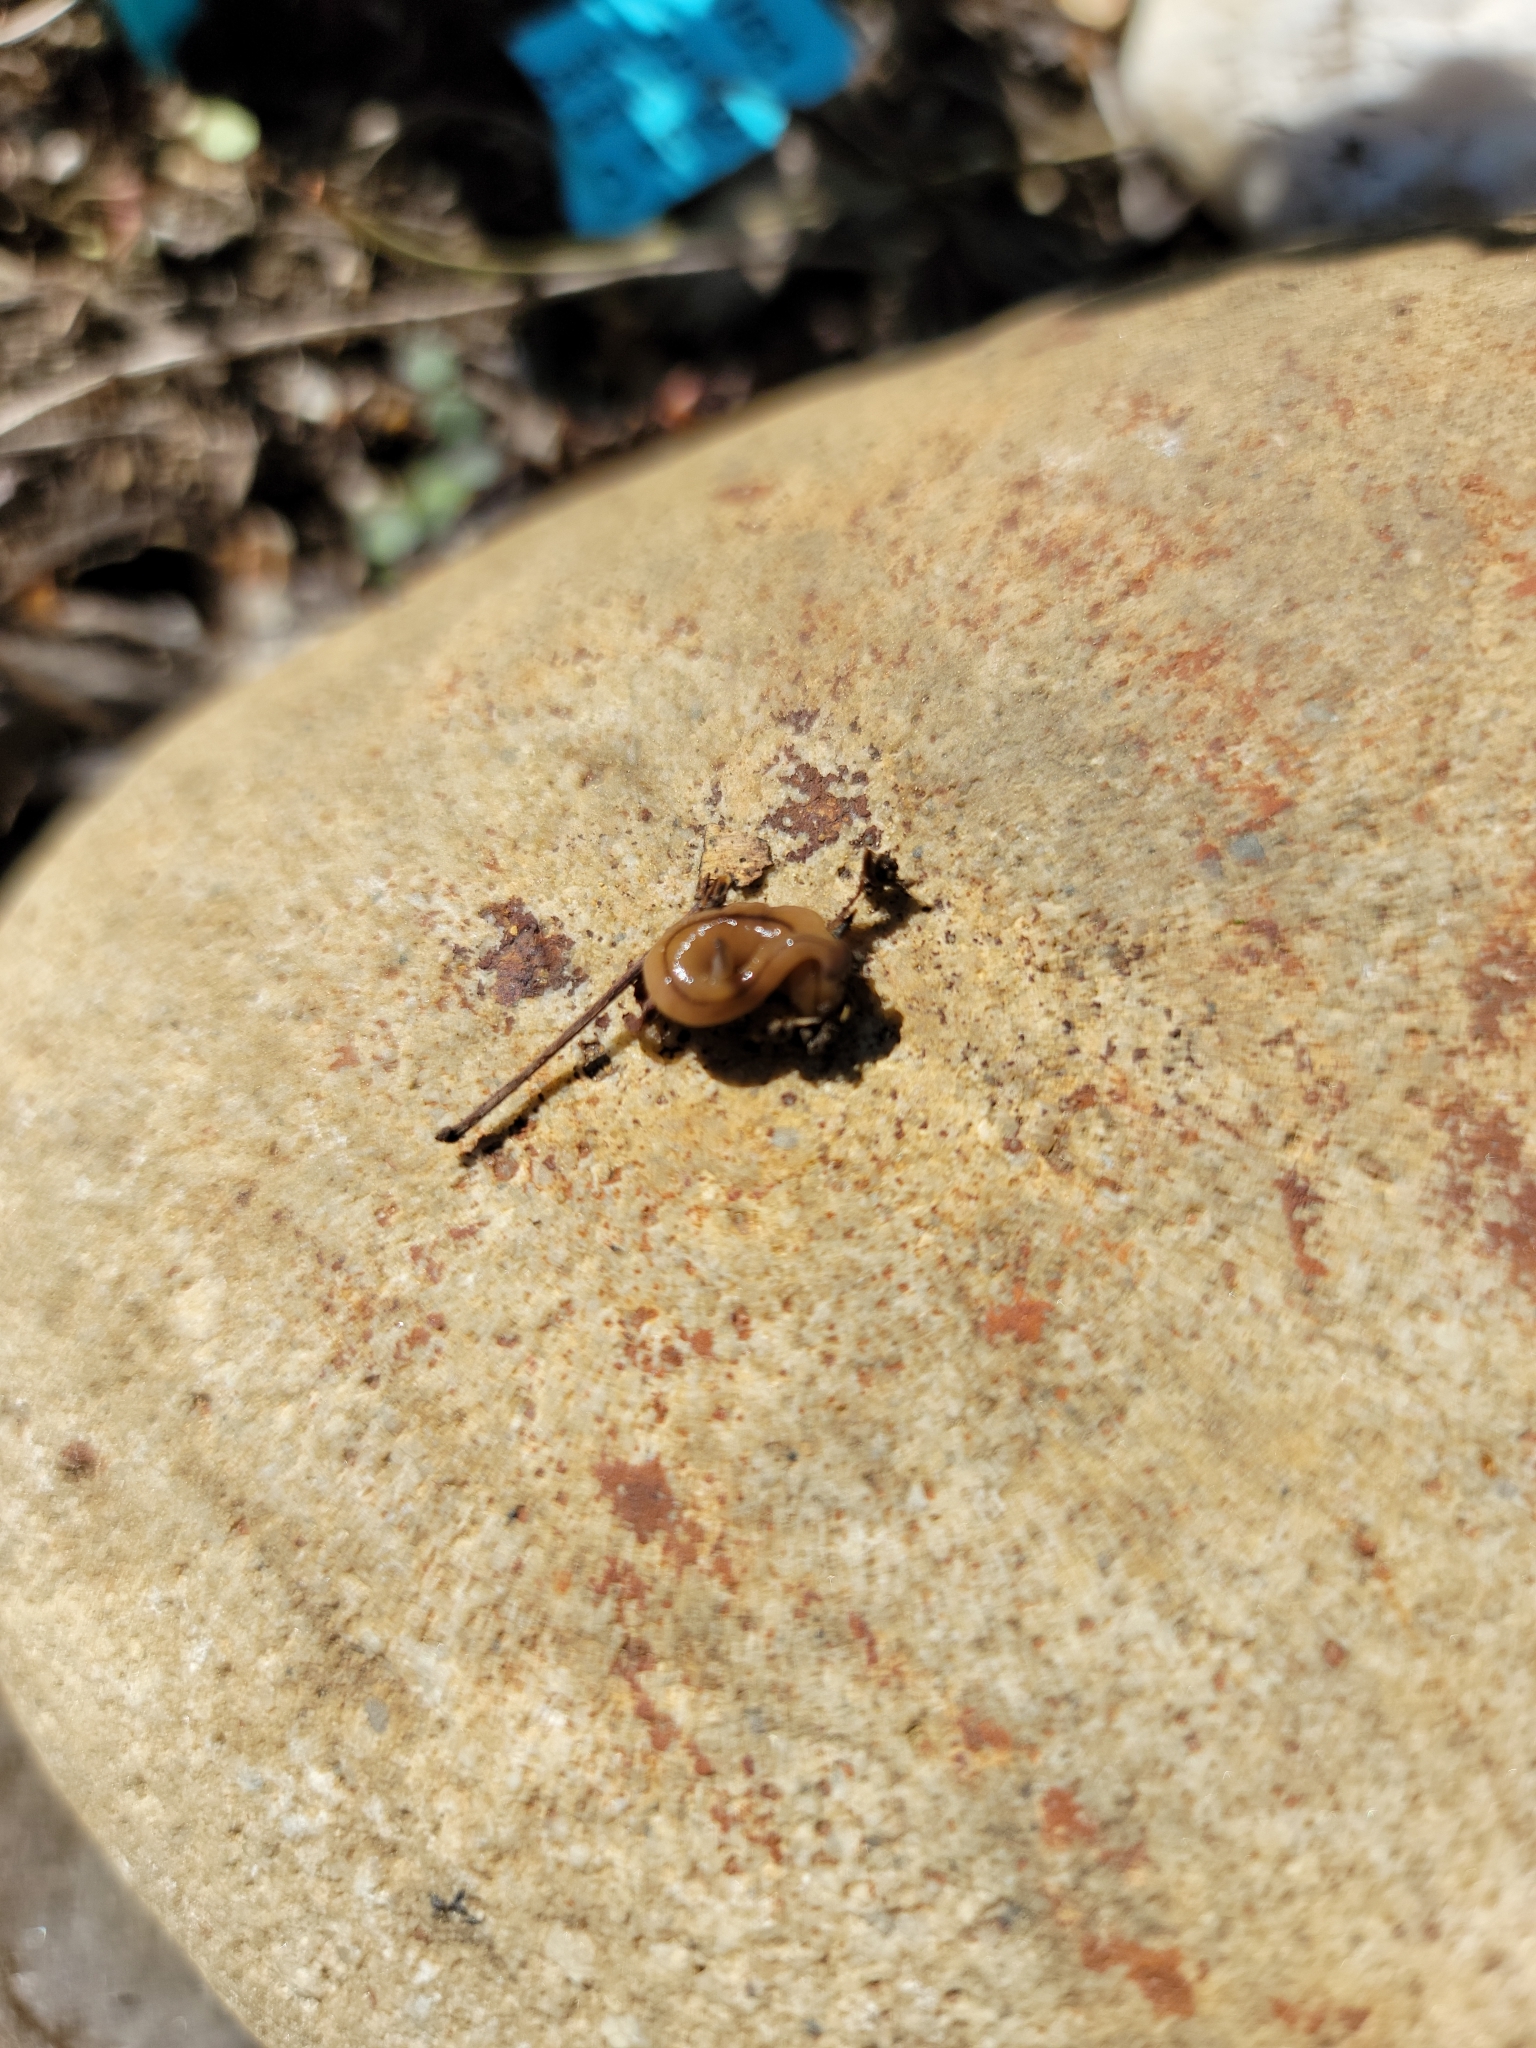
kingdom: Animalia
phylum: Platyhelminthes
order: Tricladida
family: Geoplanidae
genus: Bipalium
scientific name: Bipalium adventitium
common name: Land planarian
